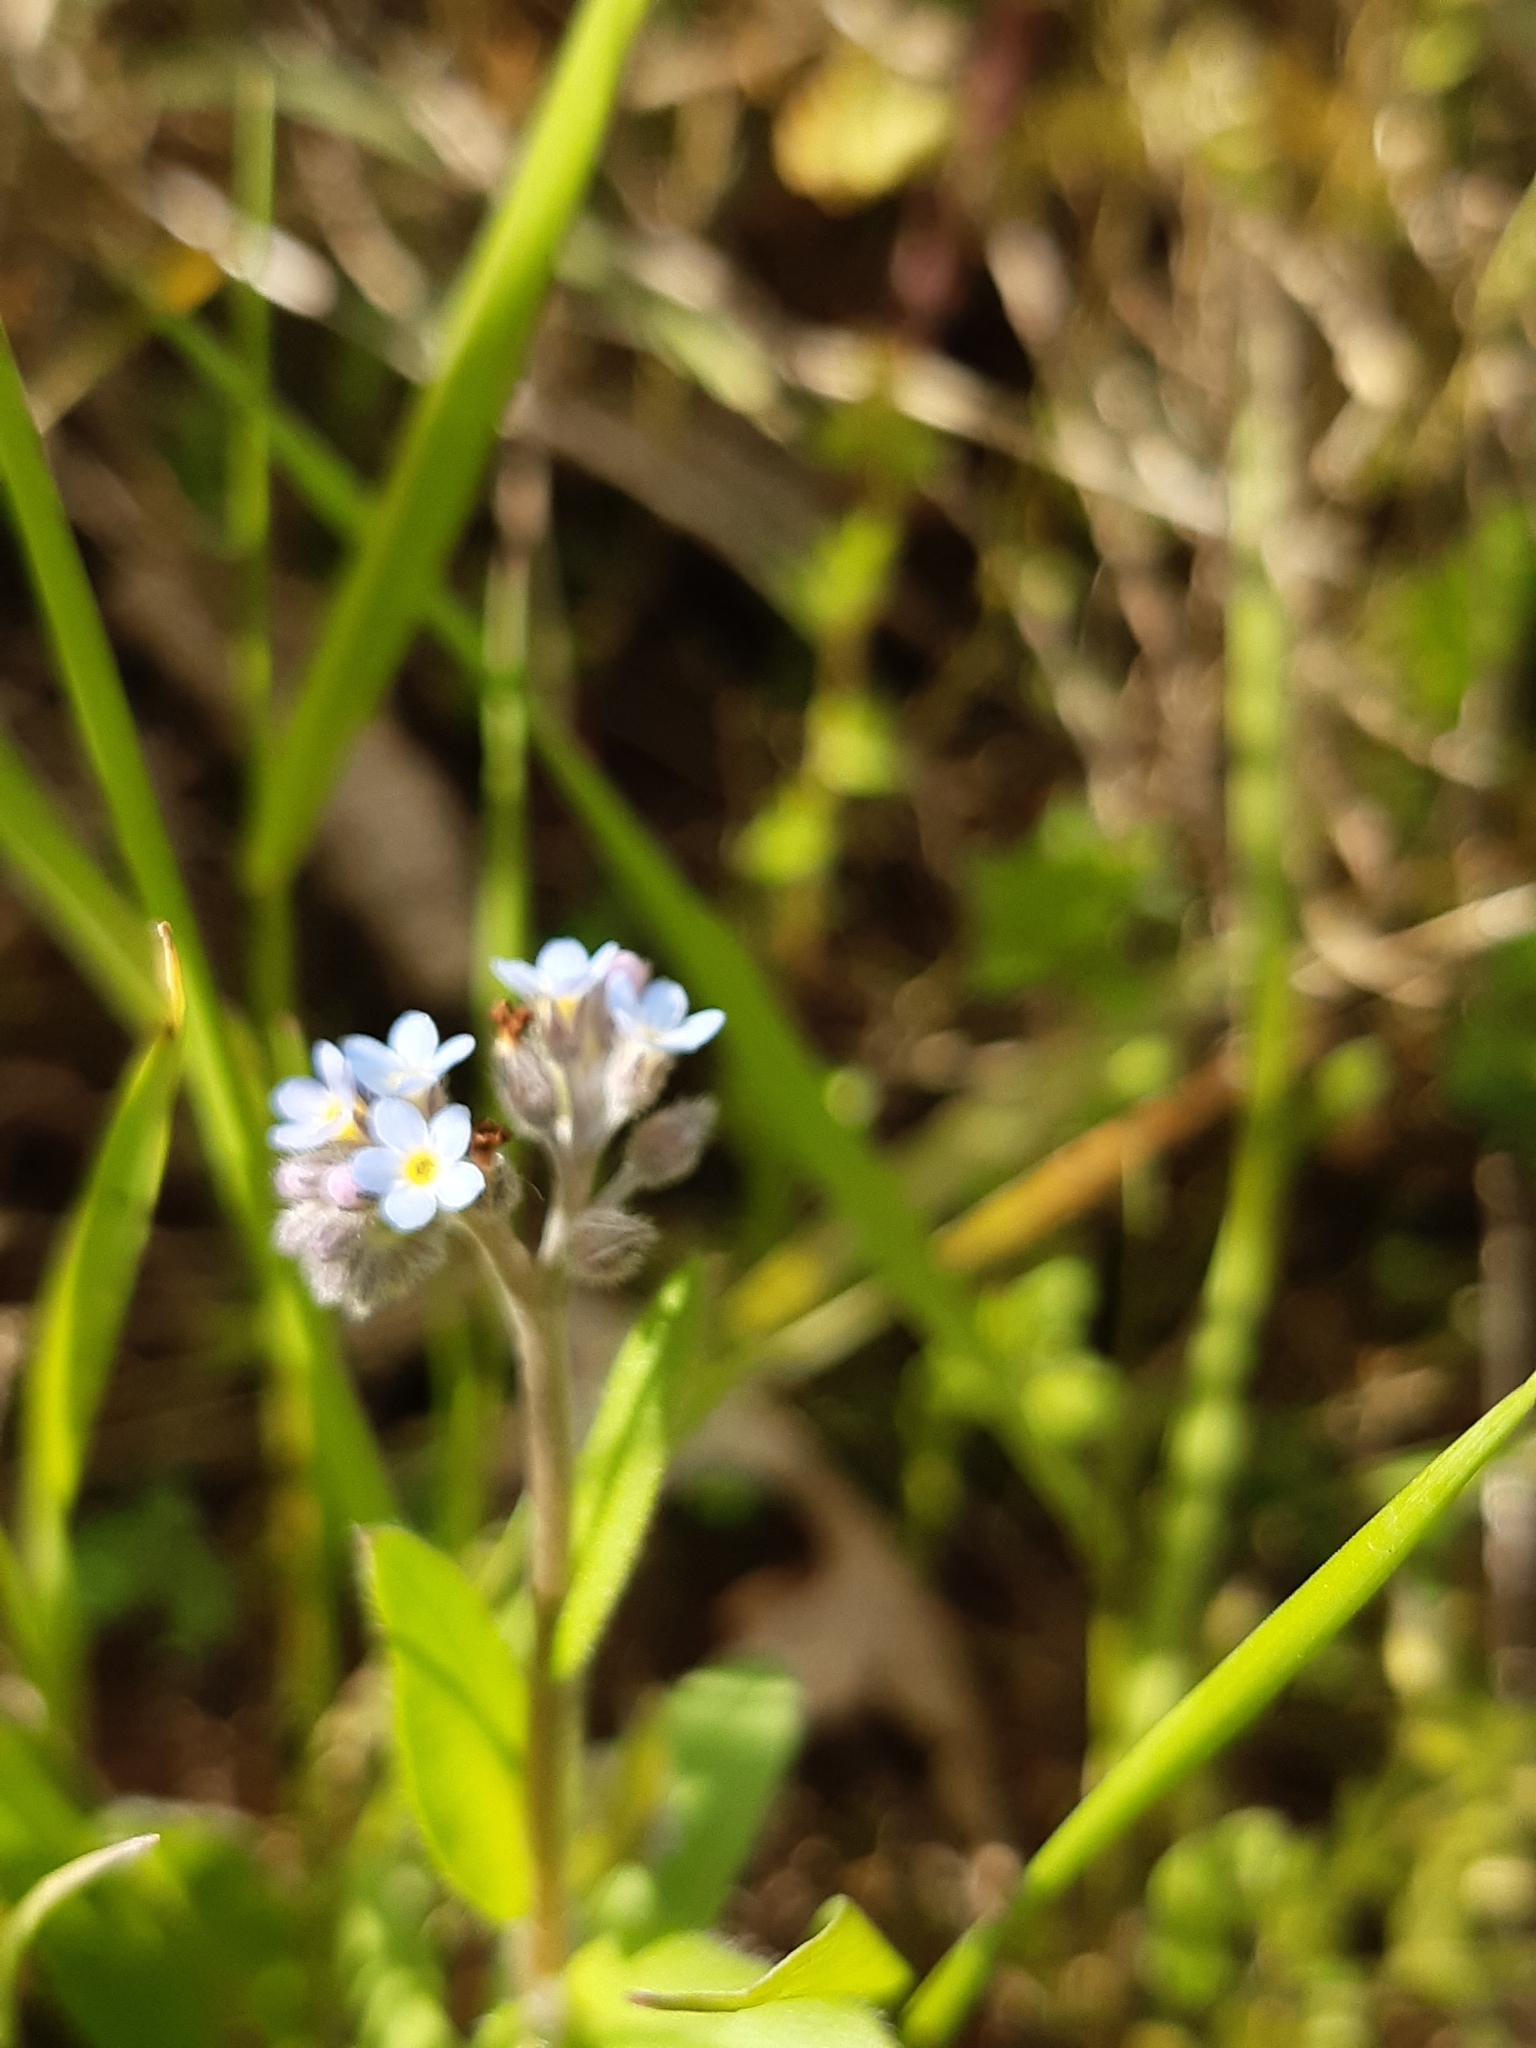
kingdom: Plantae
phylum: Tracheophyta
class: Magnoliopsida
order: Boraginales
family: Boraginaceae
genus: Myosotis
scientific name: Myosotis arvensis
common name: Field forget-me-not
